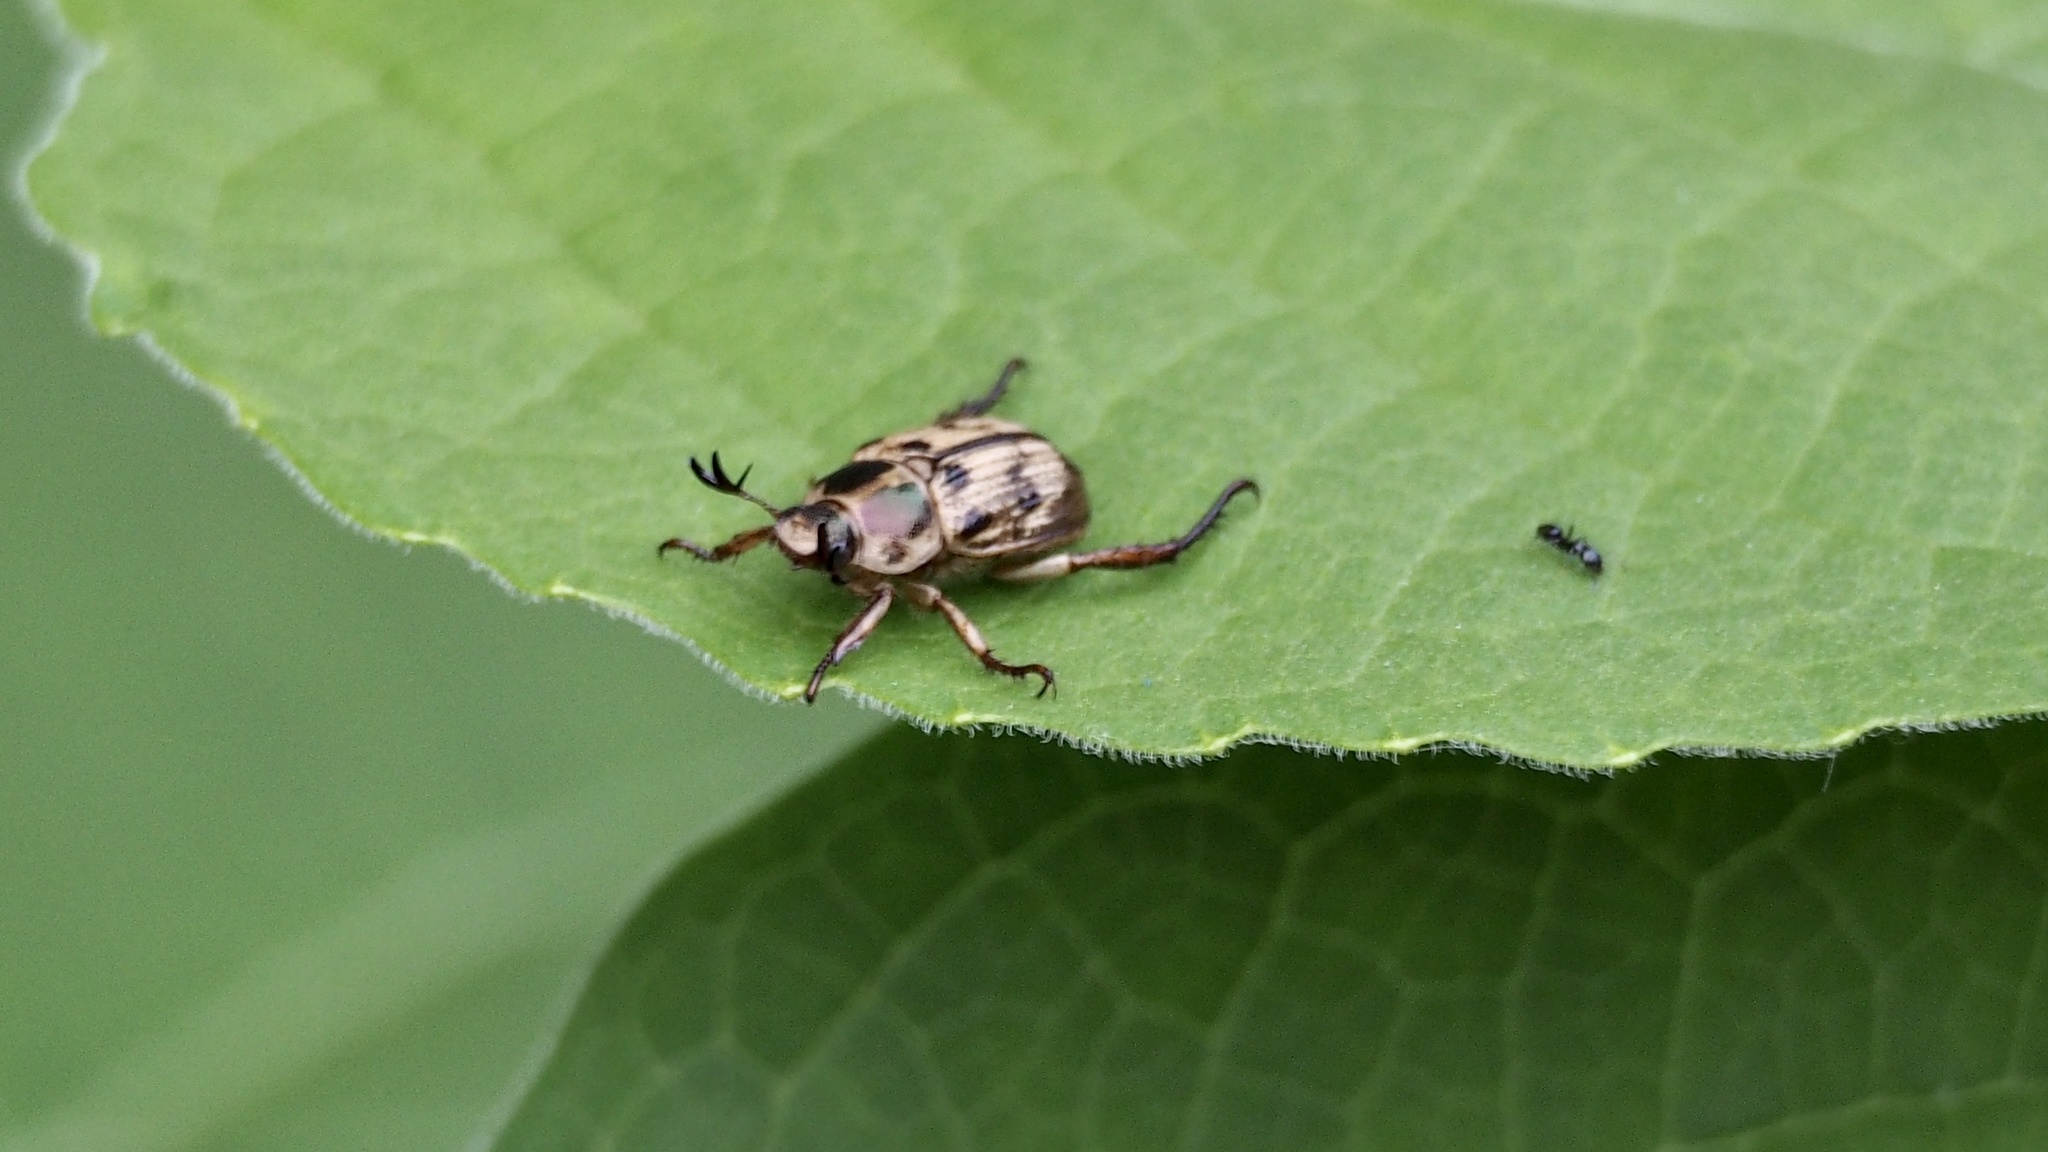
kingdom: Animalia
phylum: Arthropoda
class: Insecta
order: Coleoptera
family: Scarabaeidae
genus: Exomala
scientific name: Exomala orientalis
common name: Oriental beetle
